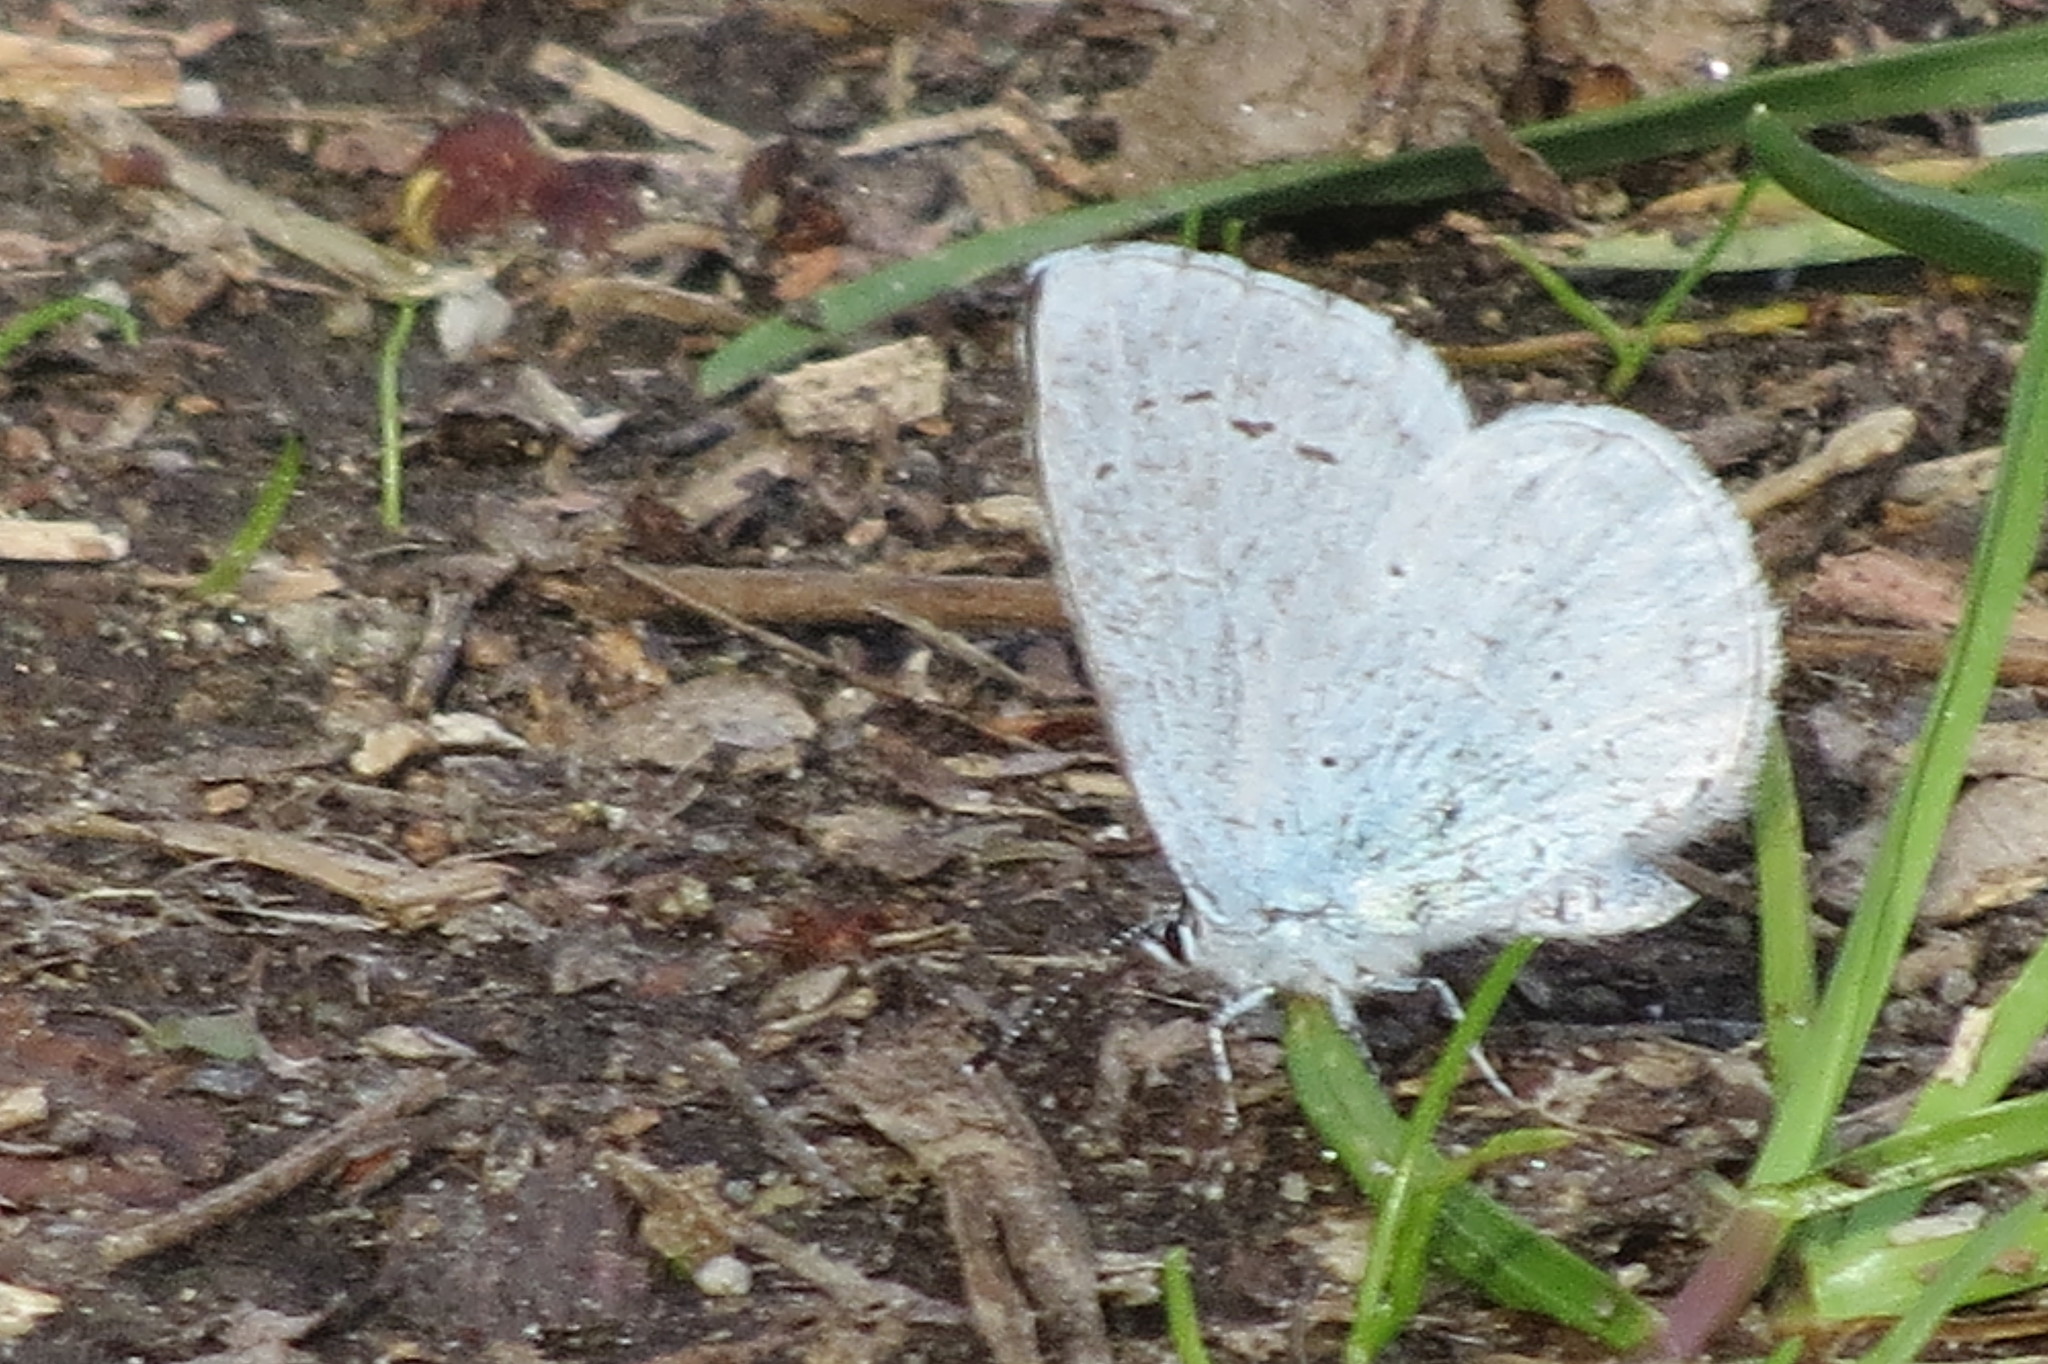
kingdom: Animalia
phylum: Arthropoda
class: Insecta
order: Lepidoptera
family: Lycaenidae
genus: Celastrina
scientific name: Celastrina argiolus
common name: Holly blue
